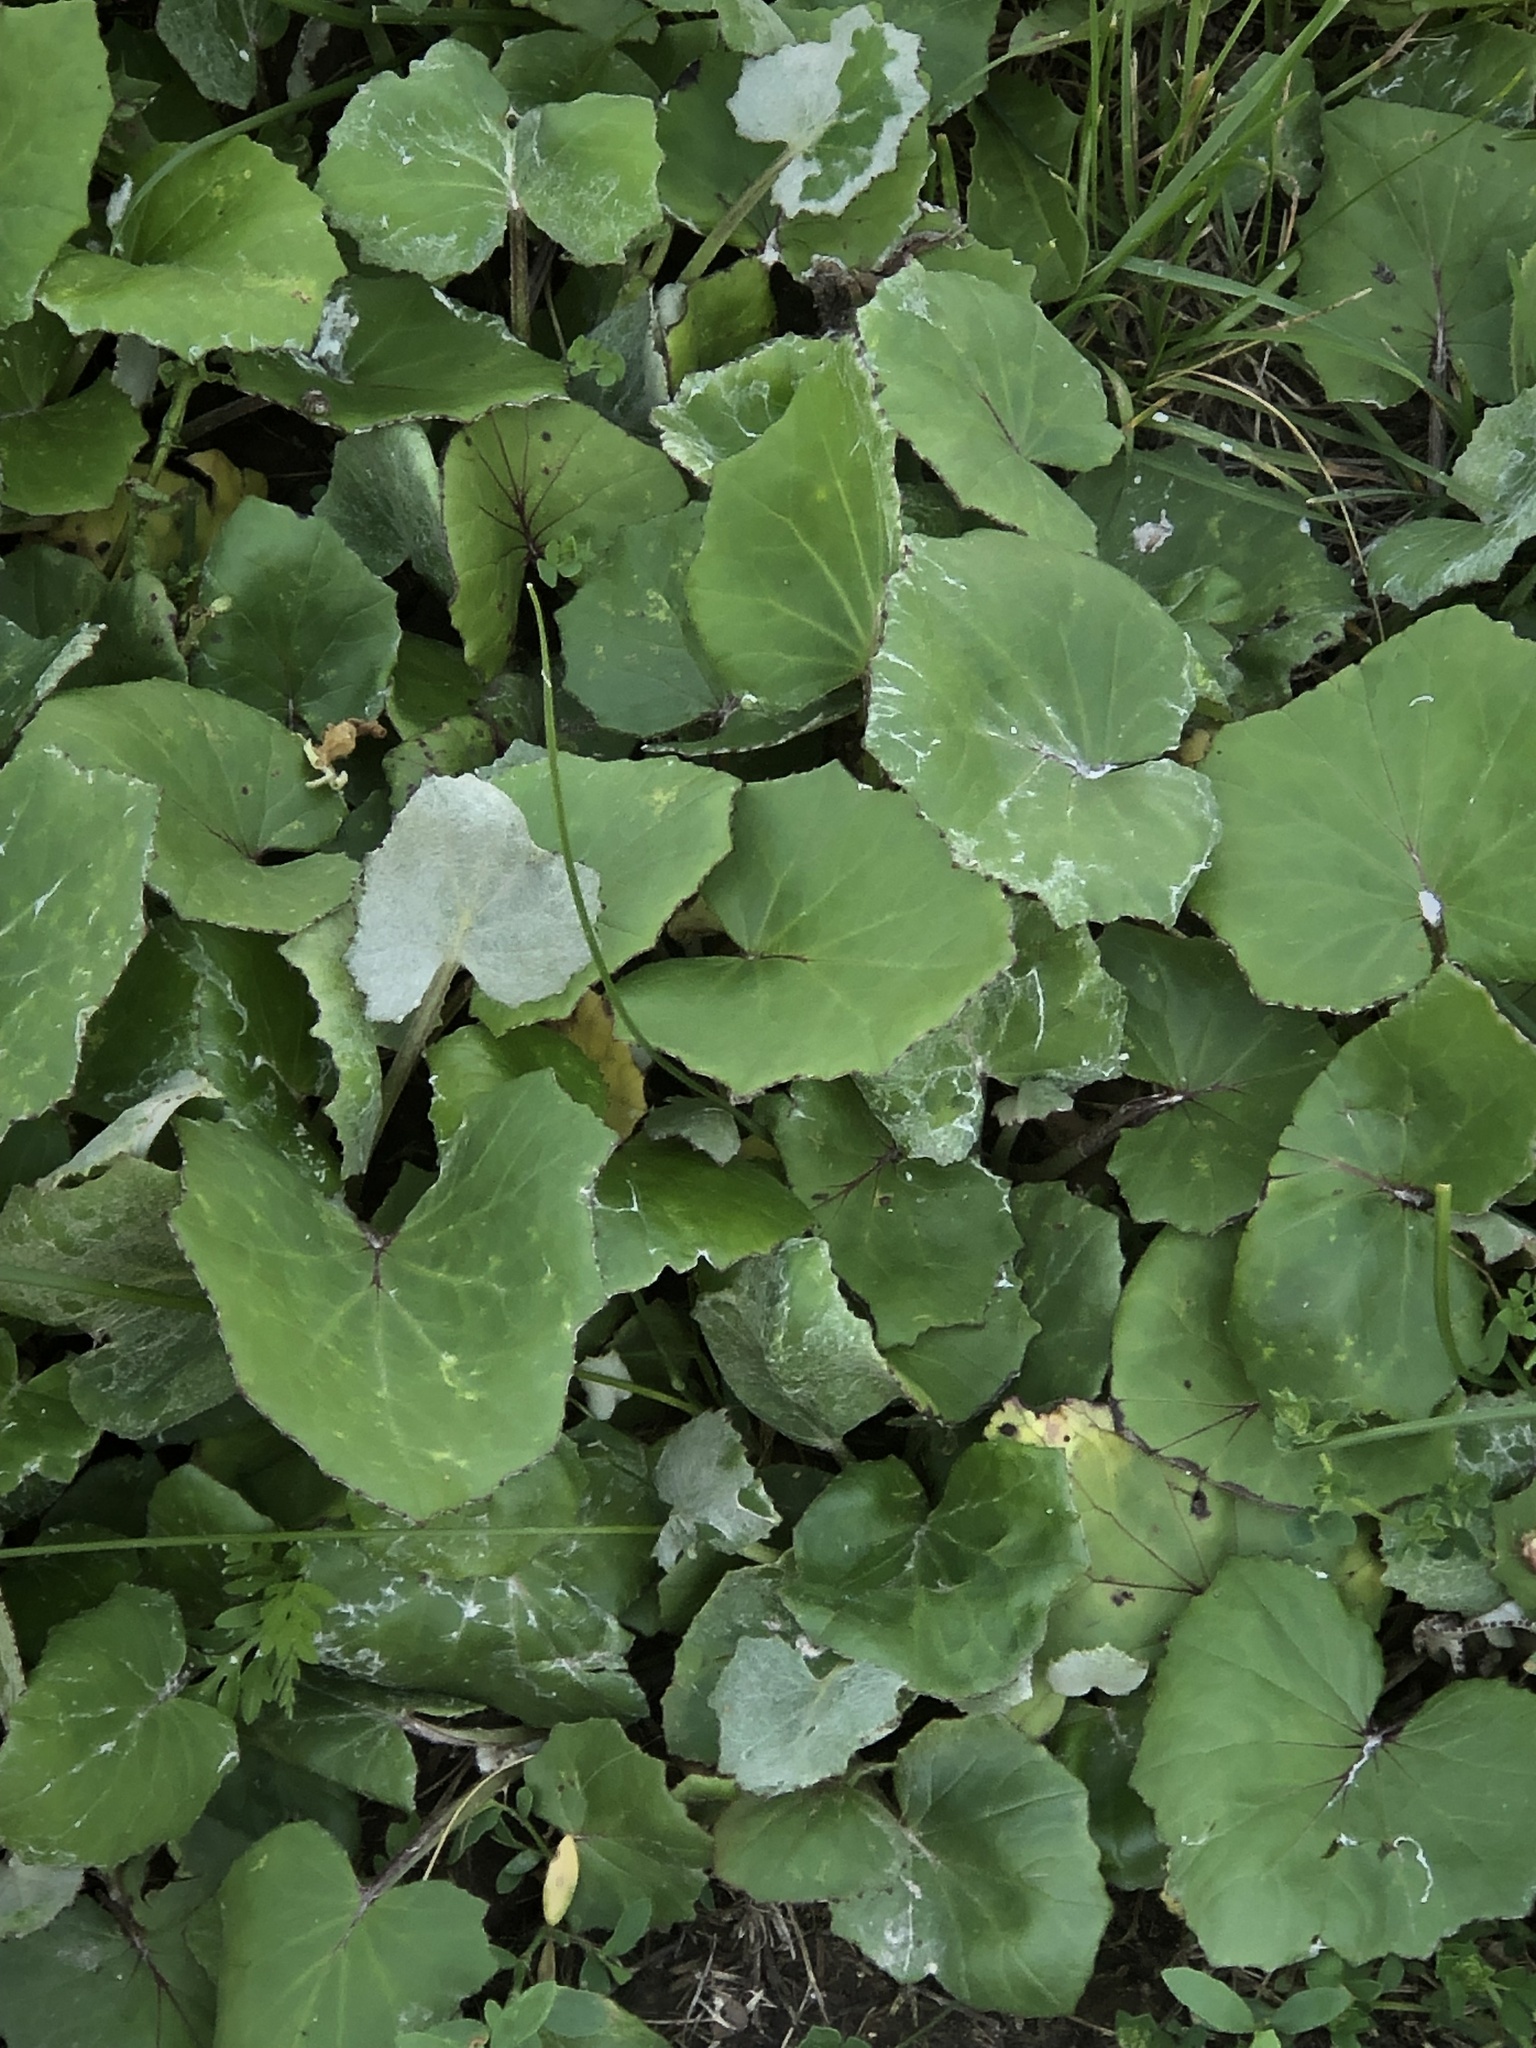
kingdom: Plantae
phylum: Tracheophyta
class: Magnoliopsida
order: Asterales
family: Asteraceae
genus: Tussilago
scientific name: Tussilago farfara
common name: Coltsfoot
